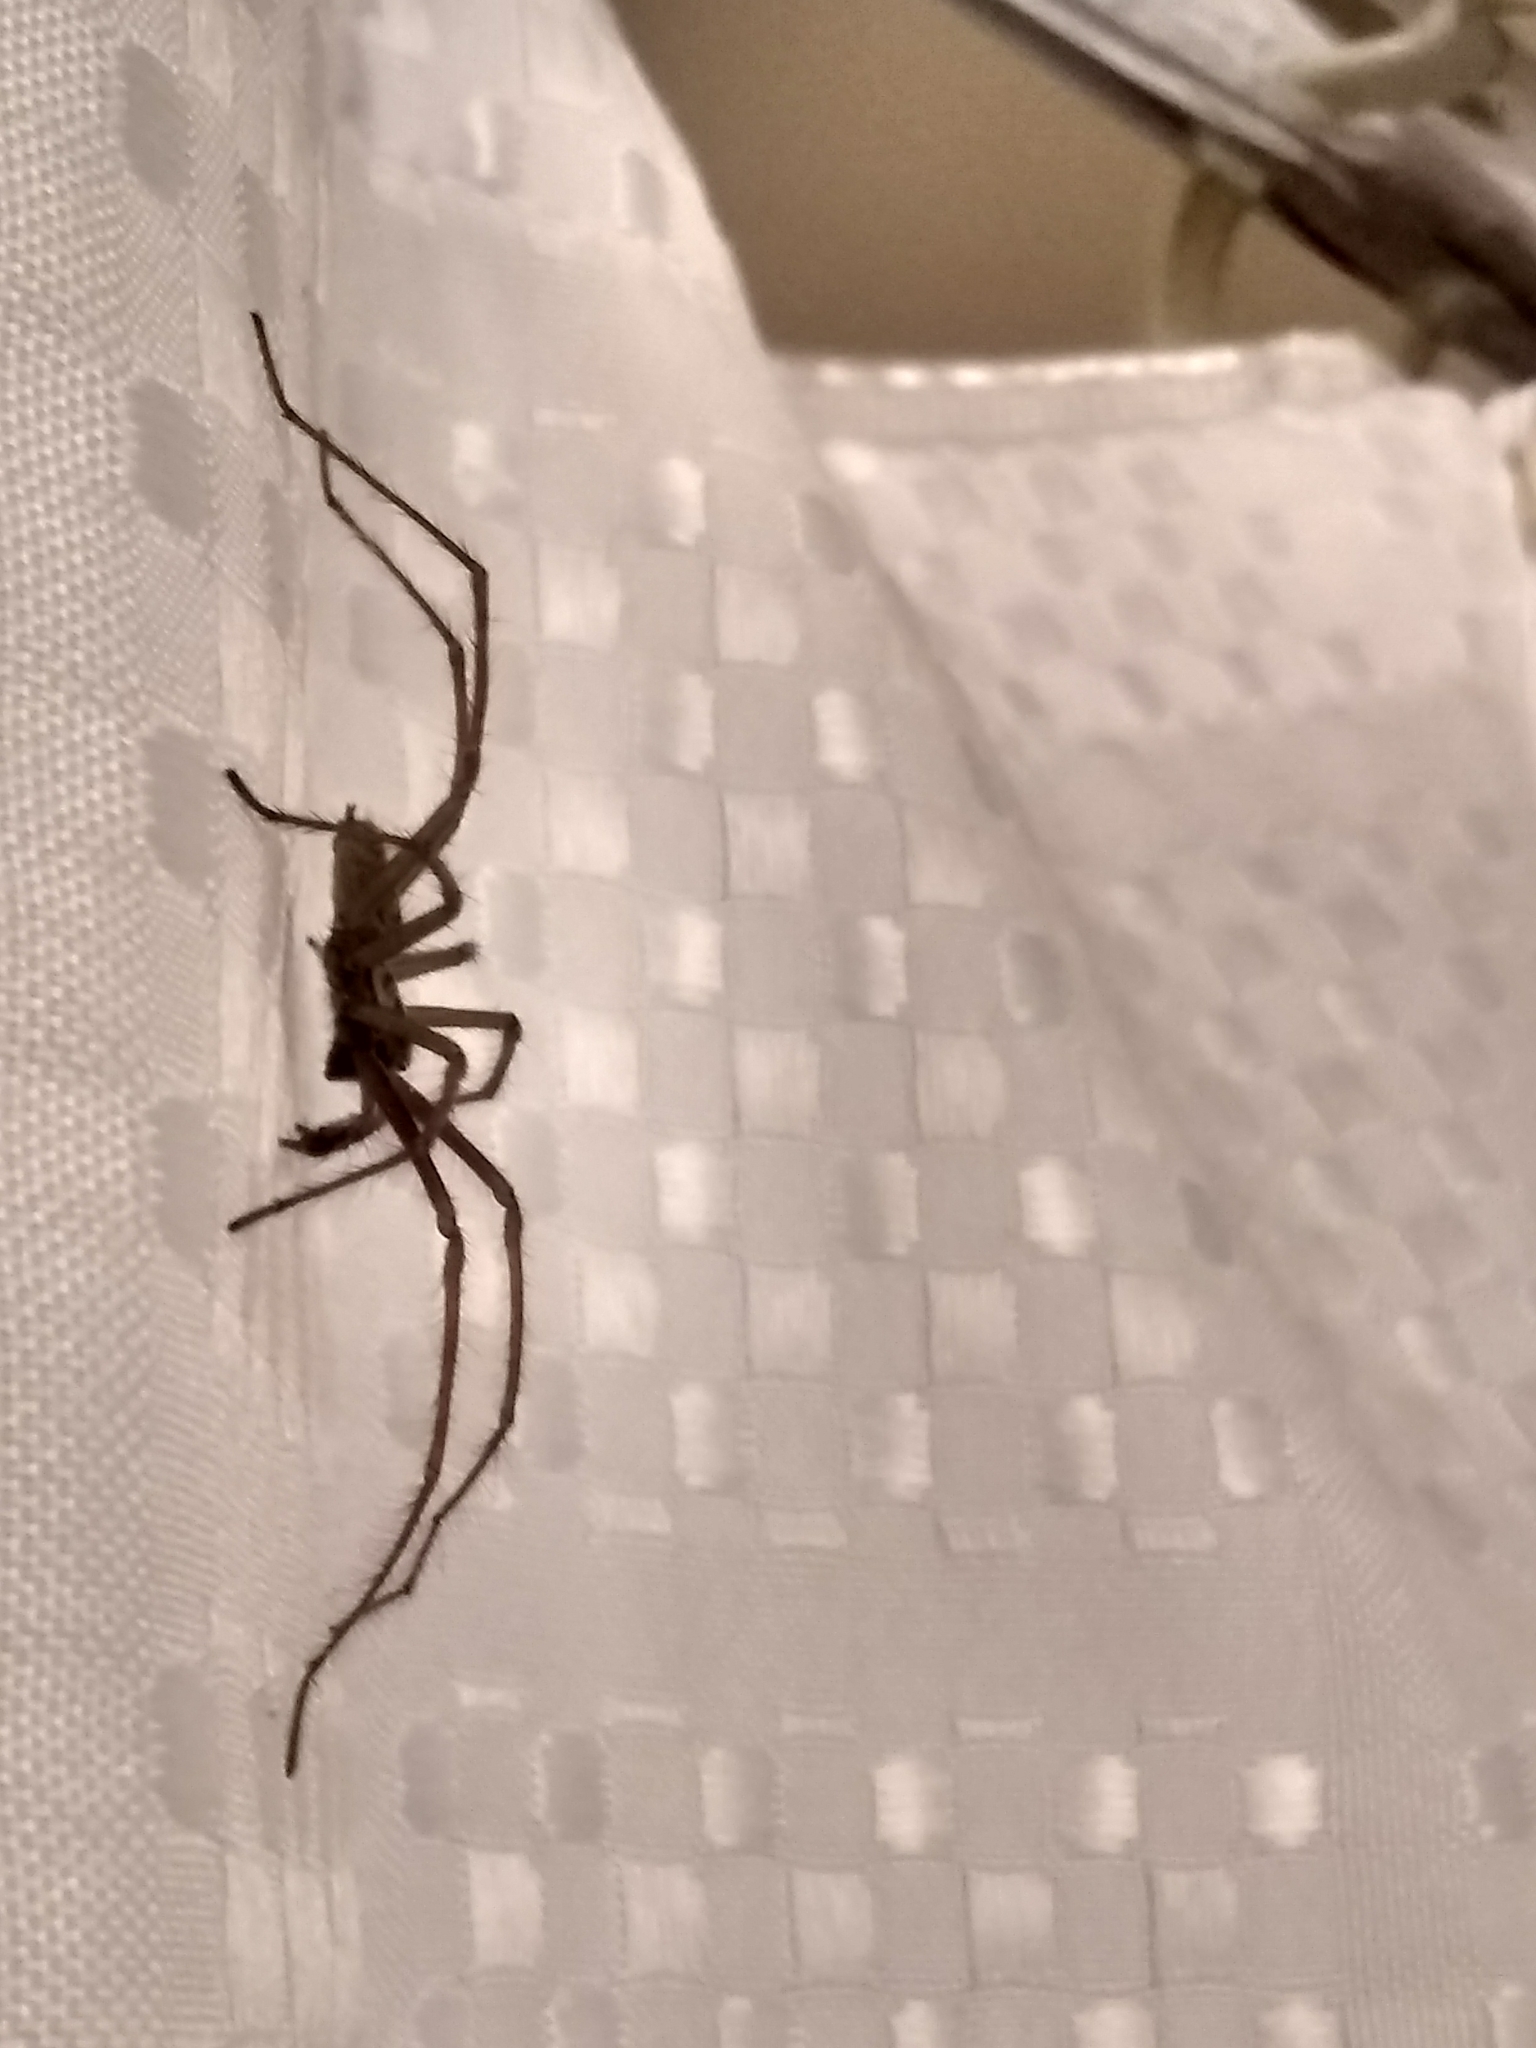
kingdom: Animalia
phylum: Arthropoda
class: Arachnida
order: Araneae
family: Agelenidae
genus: Eratigena
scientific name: Eratigena duellica
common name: Giant house spider
